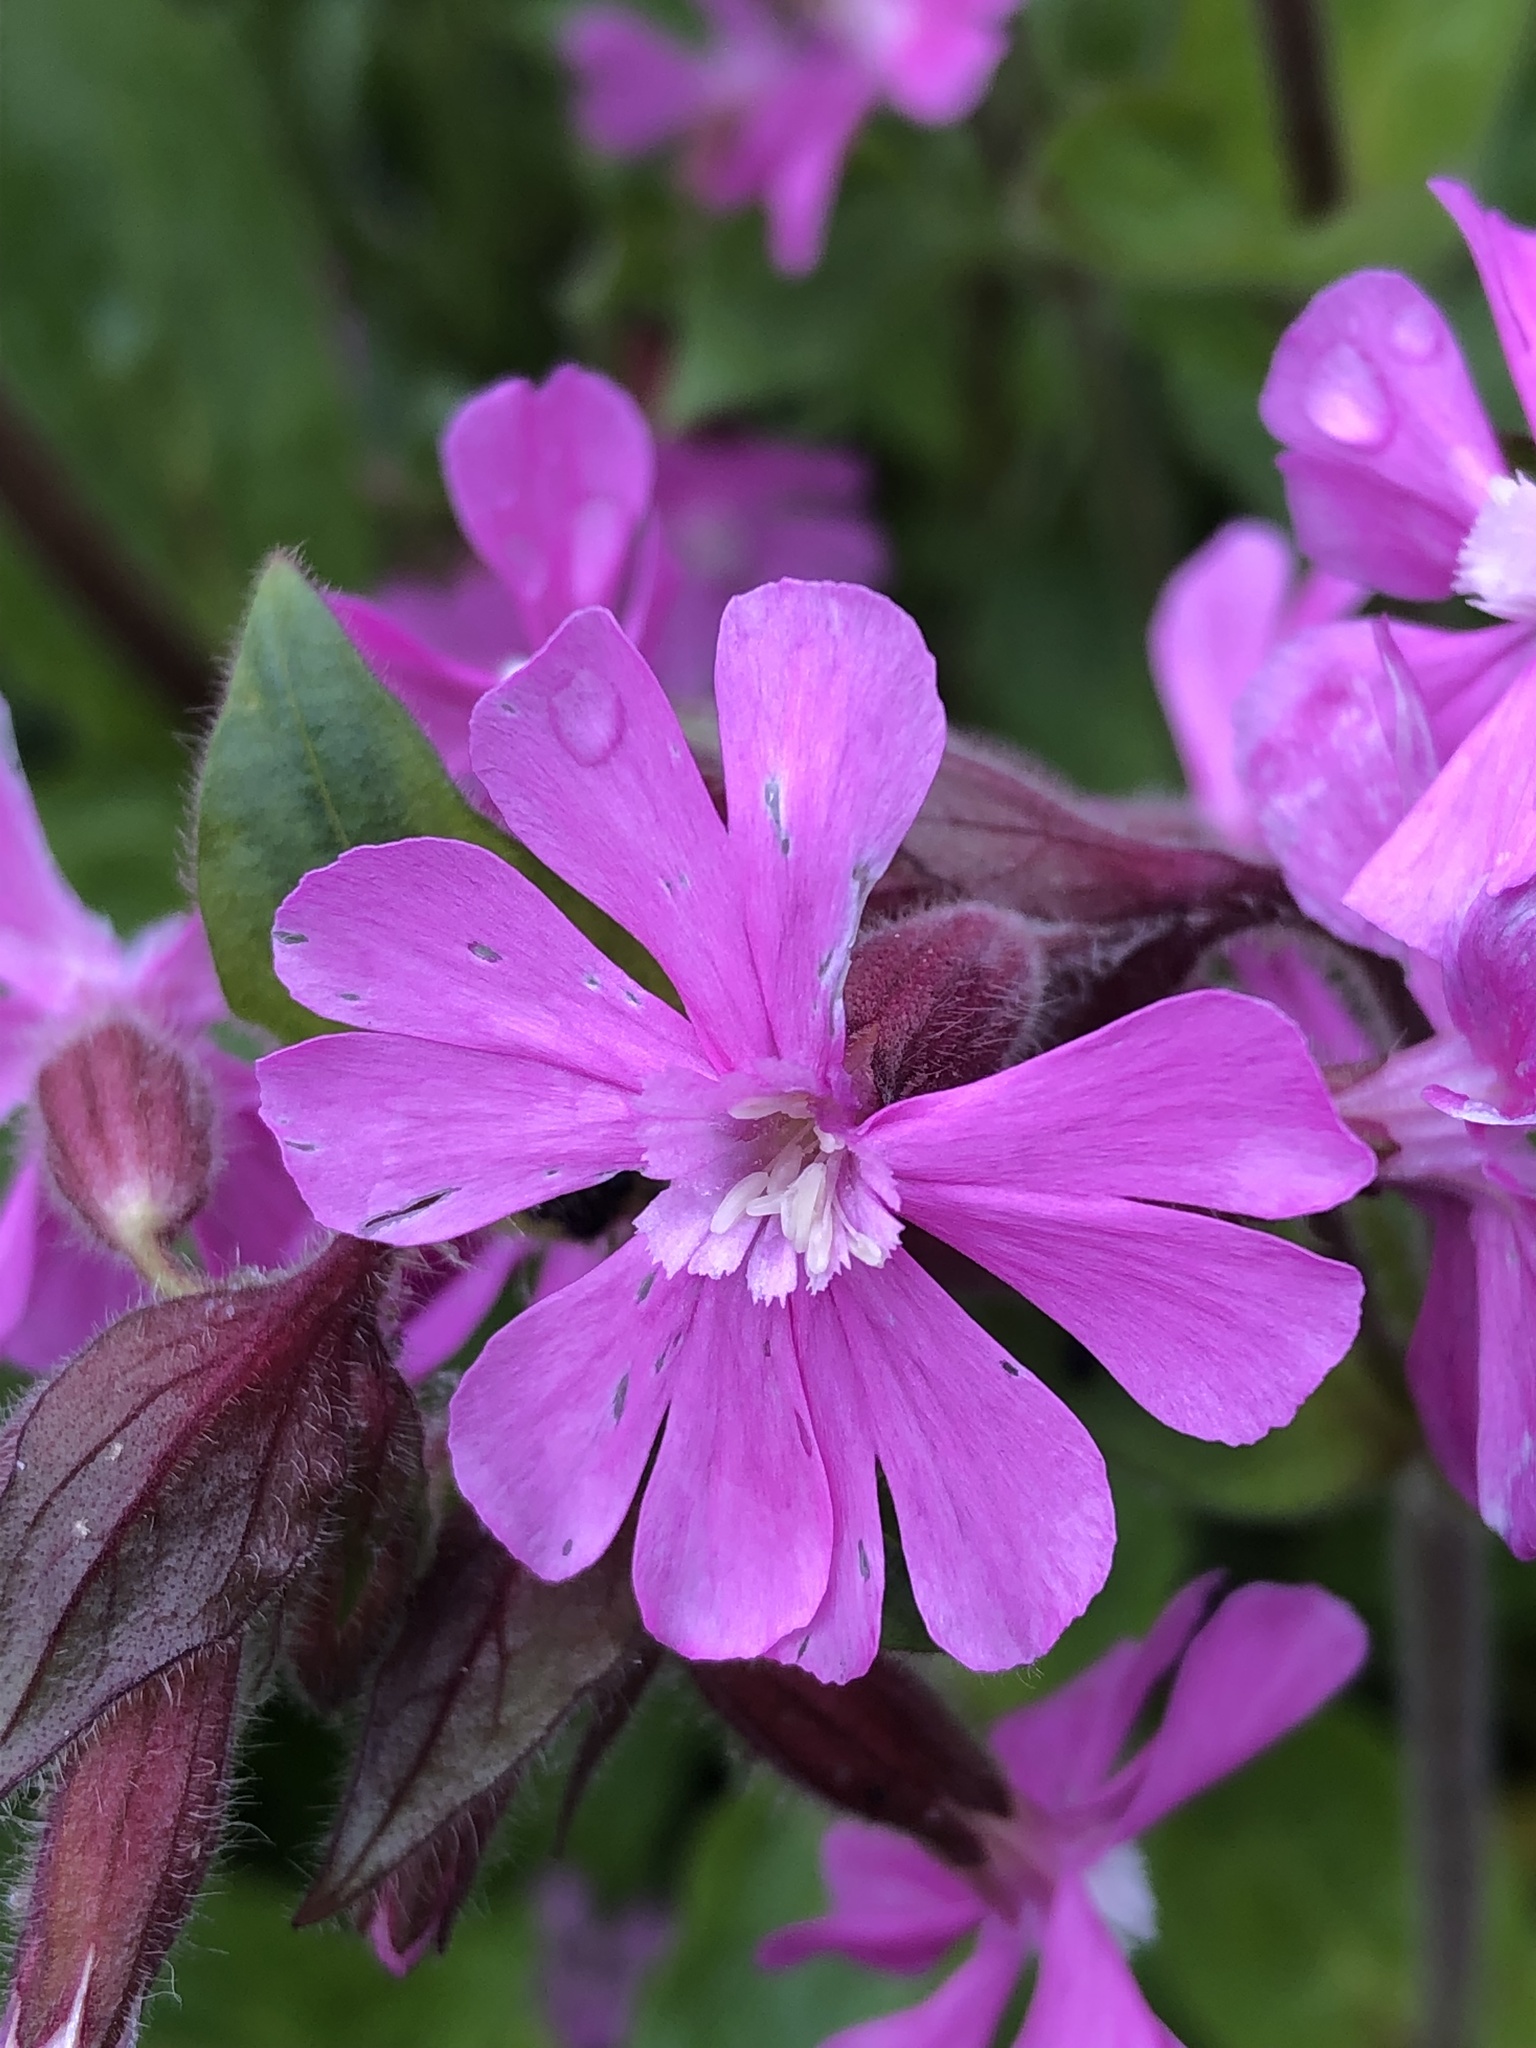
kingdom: Plantae
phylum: Tracheophyta
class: Magnoliopsida
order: Caryophyllales
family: Caryophyllaceae
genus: Silene
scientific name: Silene dioica
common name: Red campion
